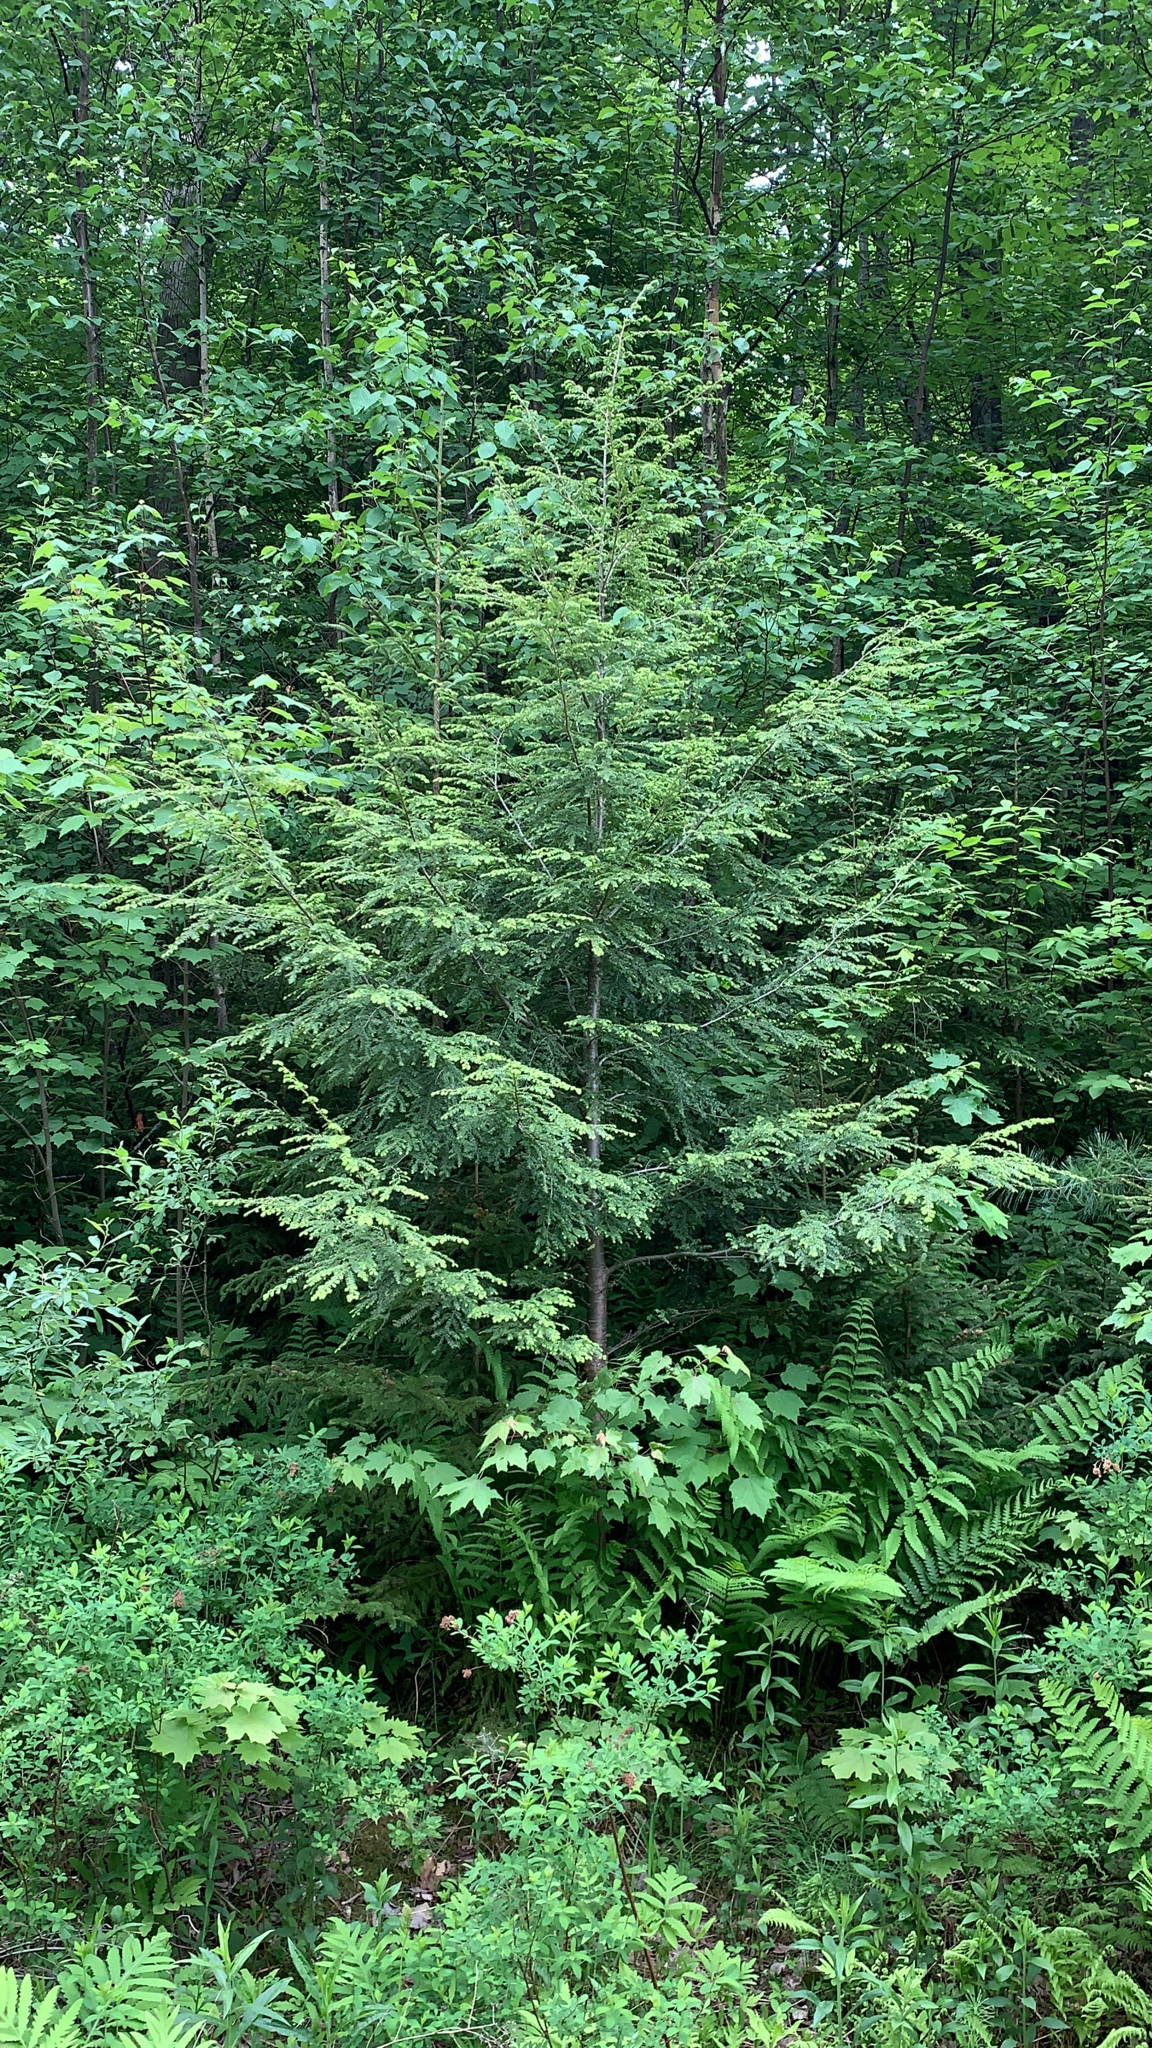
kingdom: Plantae
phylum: Tracheophyta
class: Pinopsida
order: Pinales
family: Pinaceae
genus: Tsuga
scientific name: Tsuga canadensis
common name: Eastern hemlock
